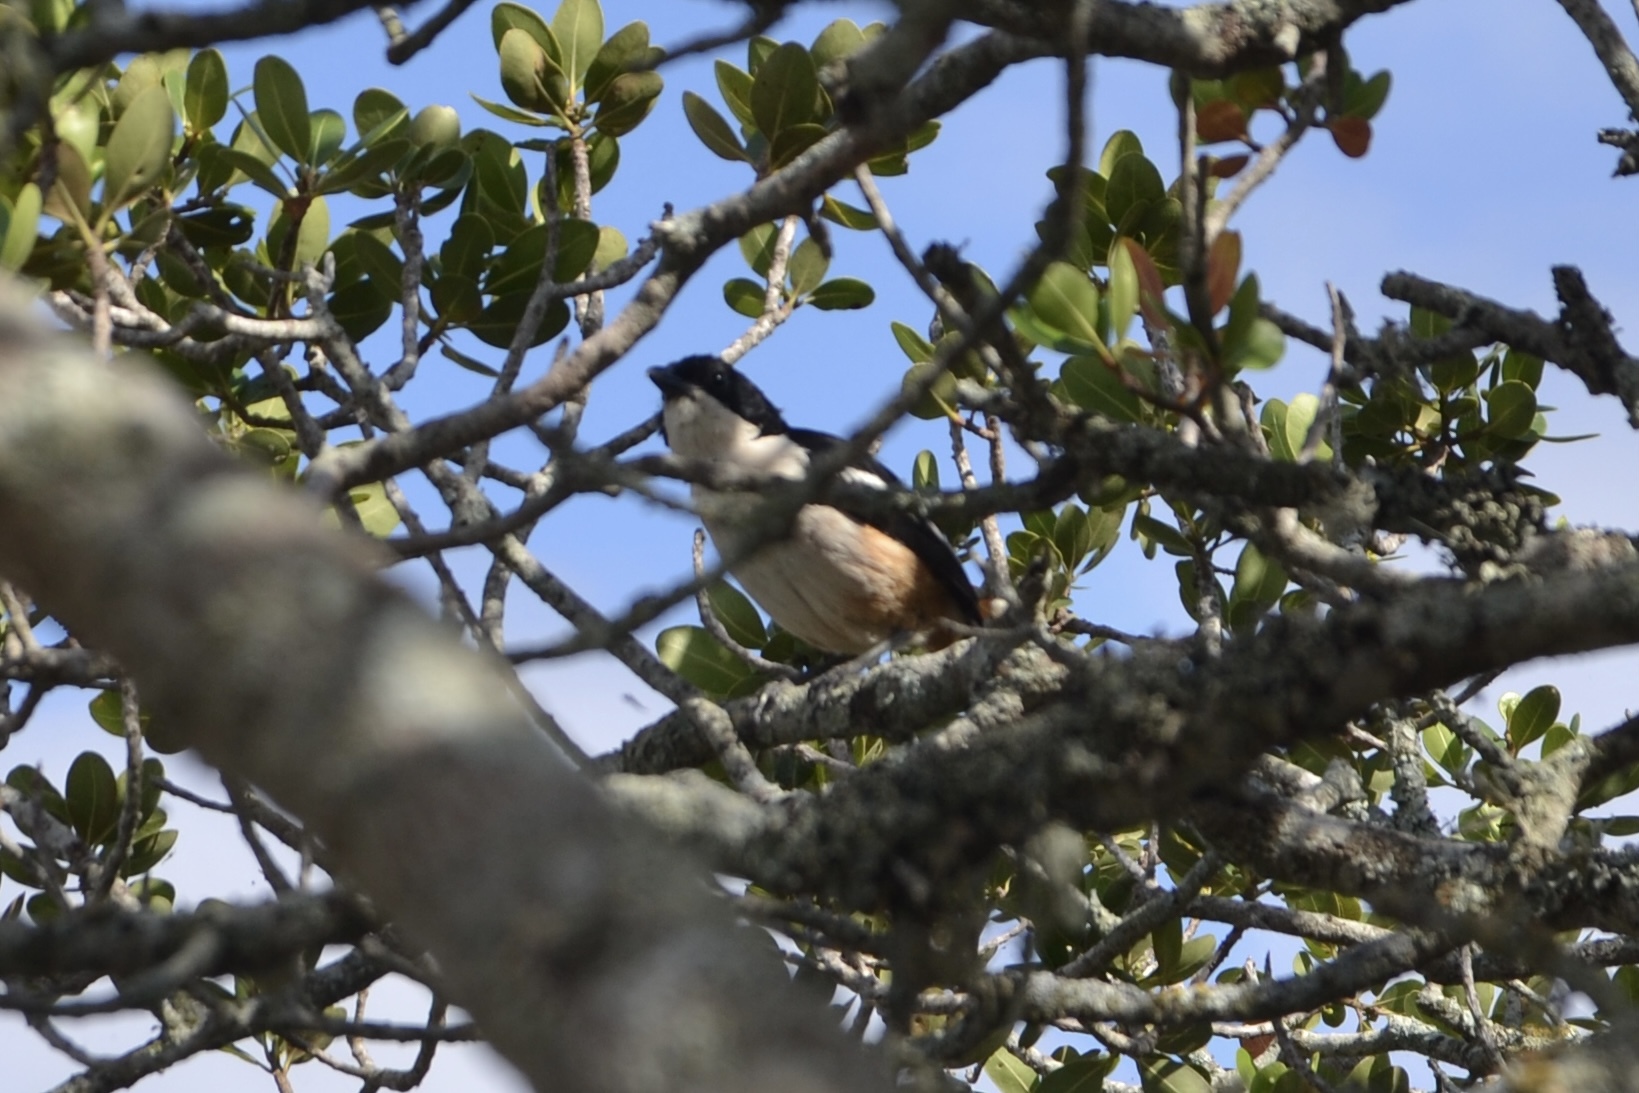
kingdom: Animalia
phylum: Chordata
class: Aves
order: Passeriformes
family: Malaconotidae
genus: Laniarius
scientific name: Laniarius ferrugineus
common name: Southern boubou
